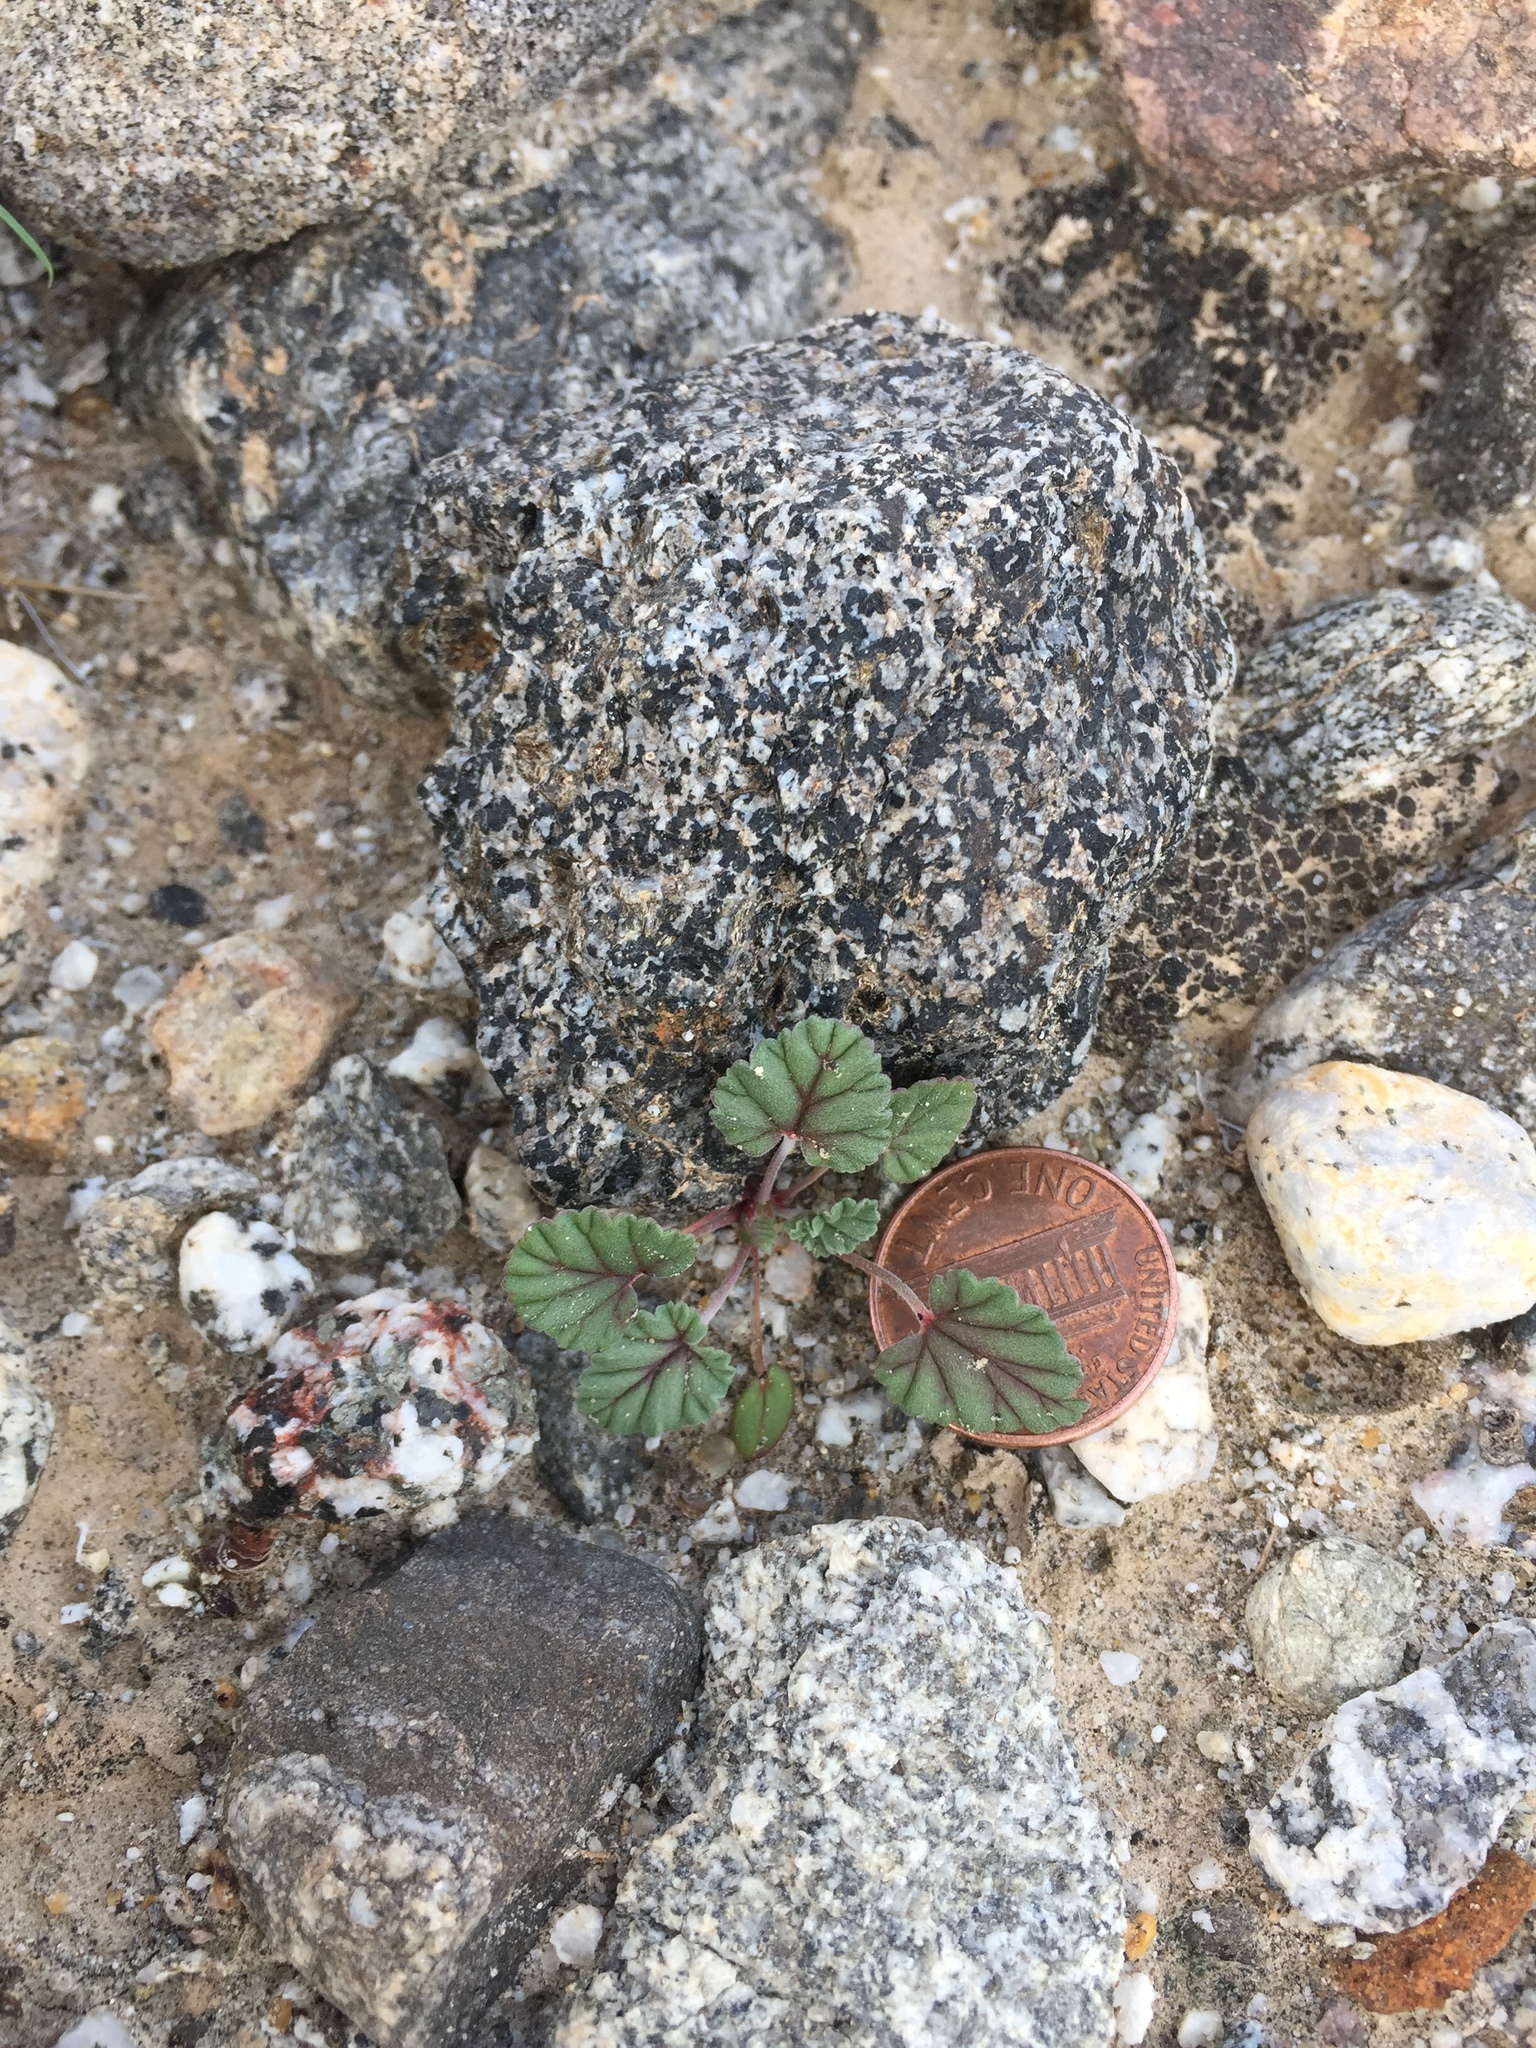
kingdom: Plantae
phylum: Tracheophyta
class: Magnoliopsida
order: Geraniales
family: Geraniaceae
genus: Erodium
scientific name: Erodium texanum
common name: Texas stork's-bill
